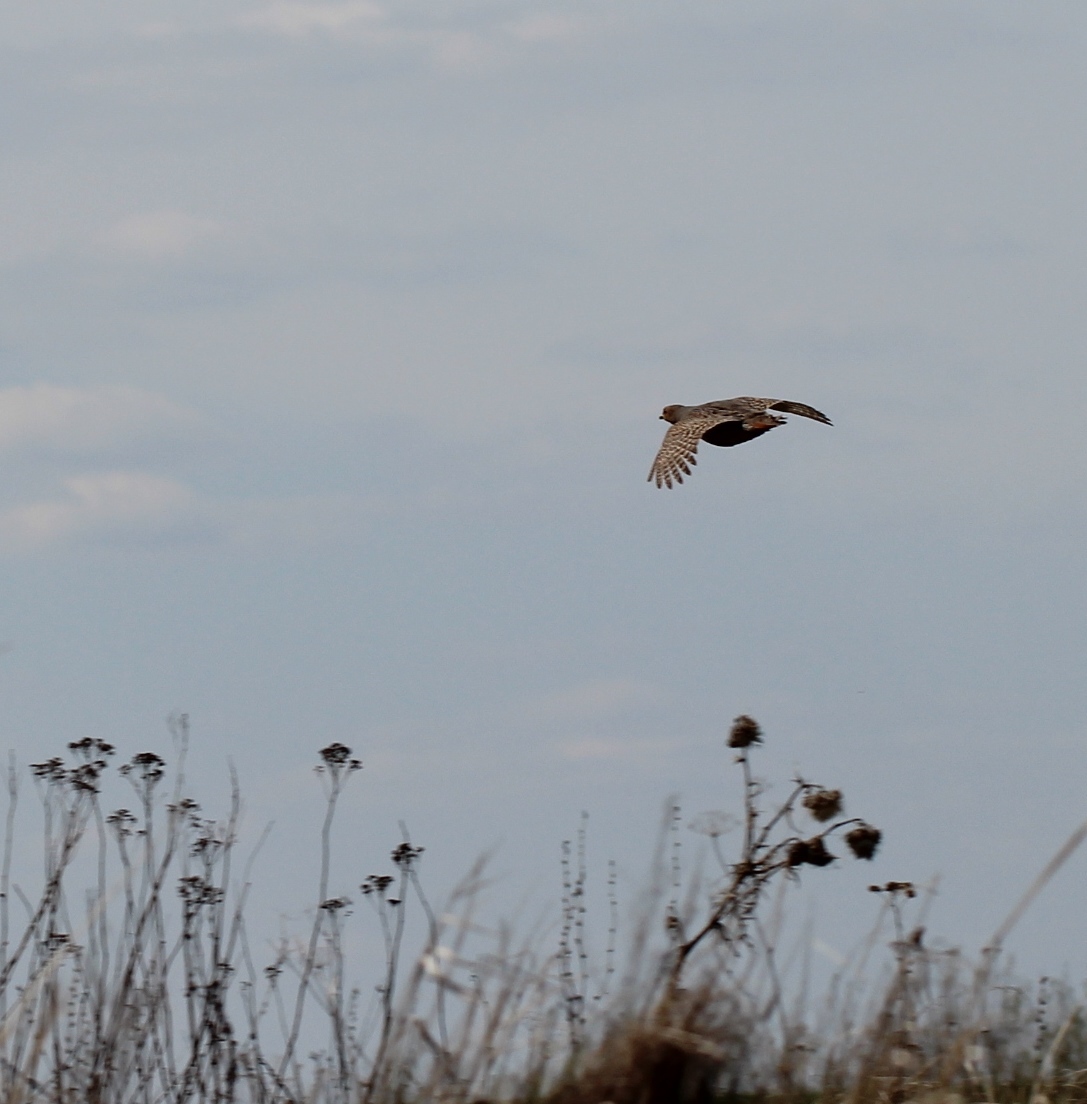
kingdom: Animalia
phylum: Chordata
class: Aves
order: Galliformes
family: Phasianidae
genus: Perdix
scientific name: Perdix perdix
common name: Grey partridge
